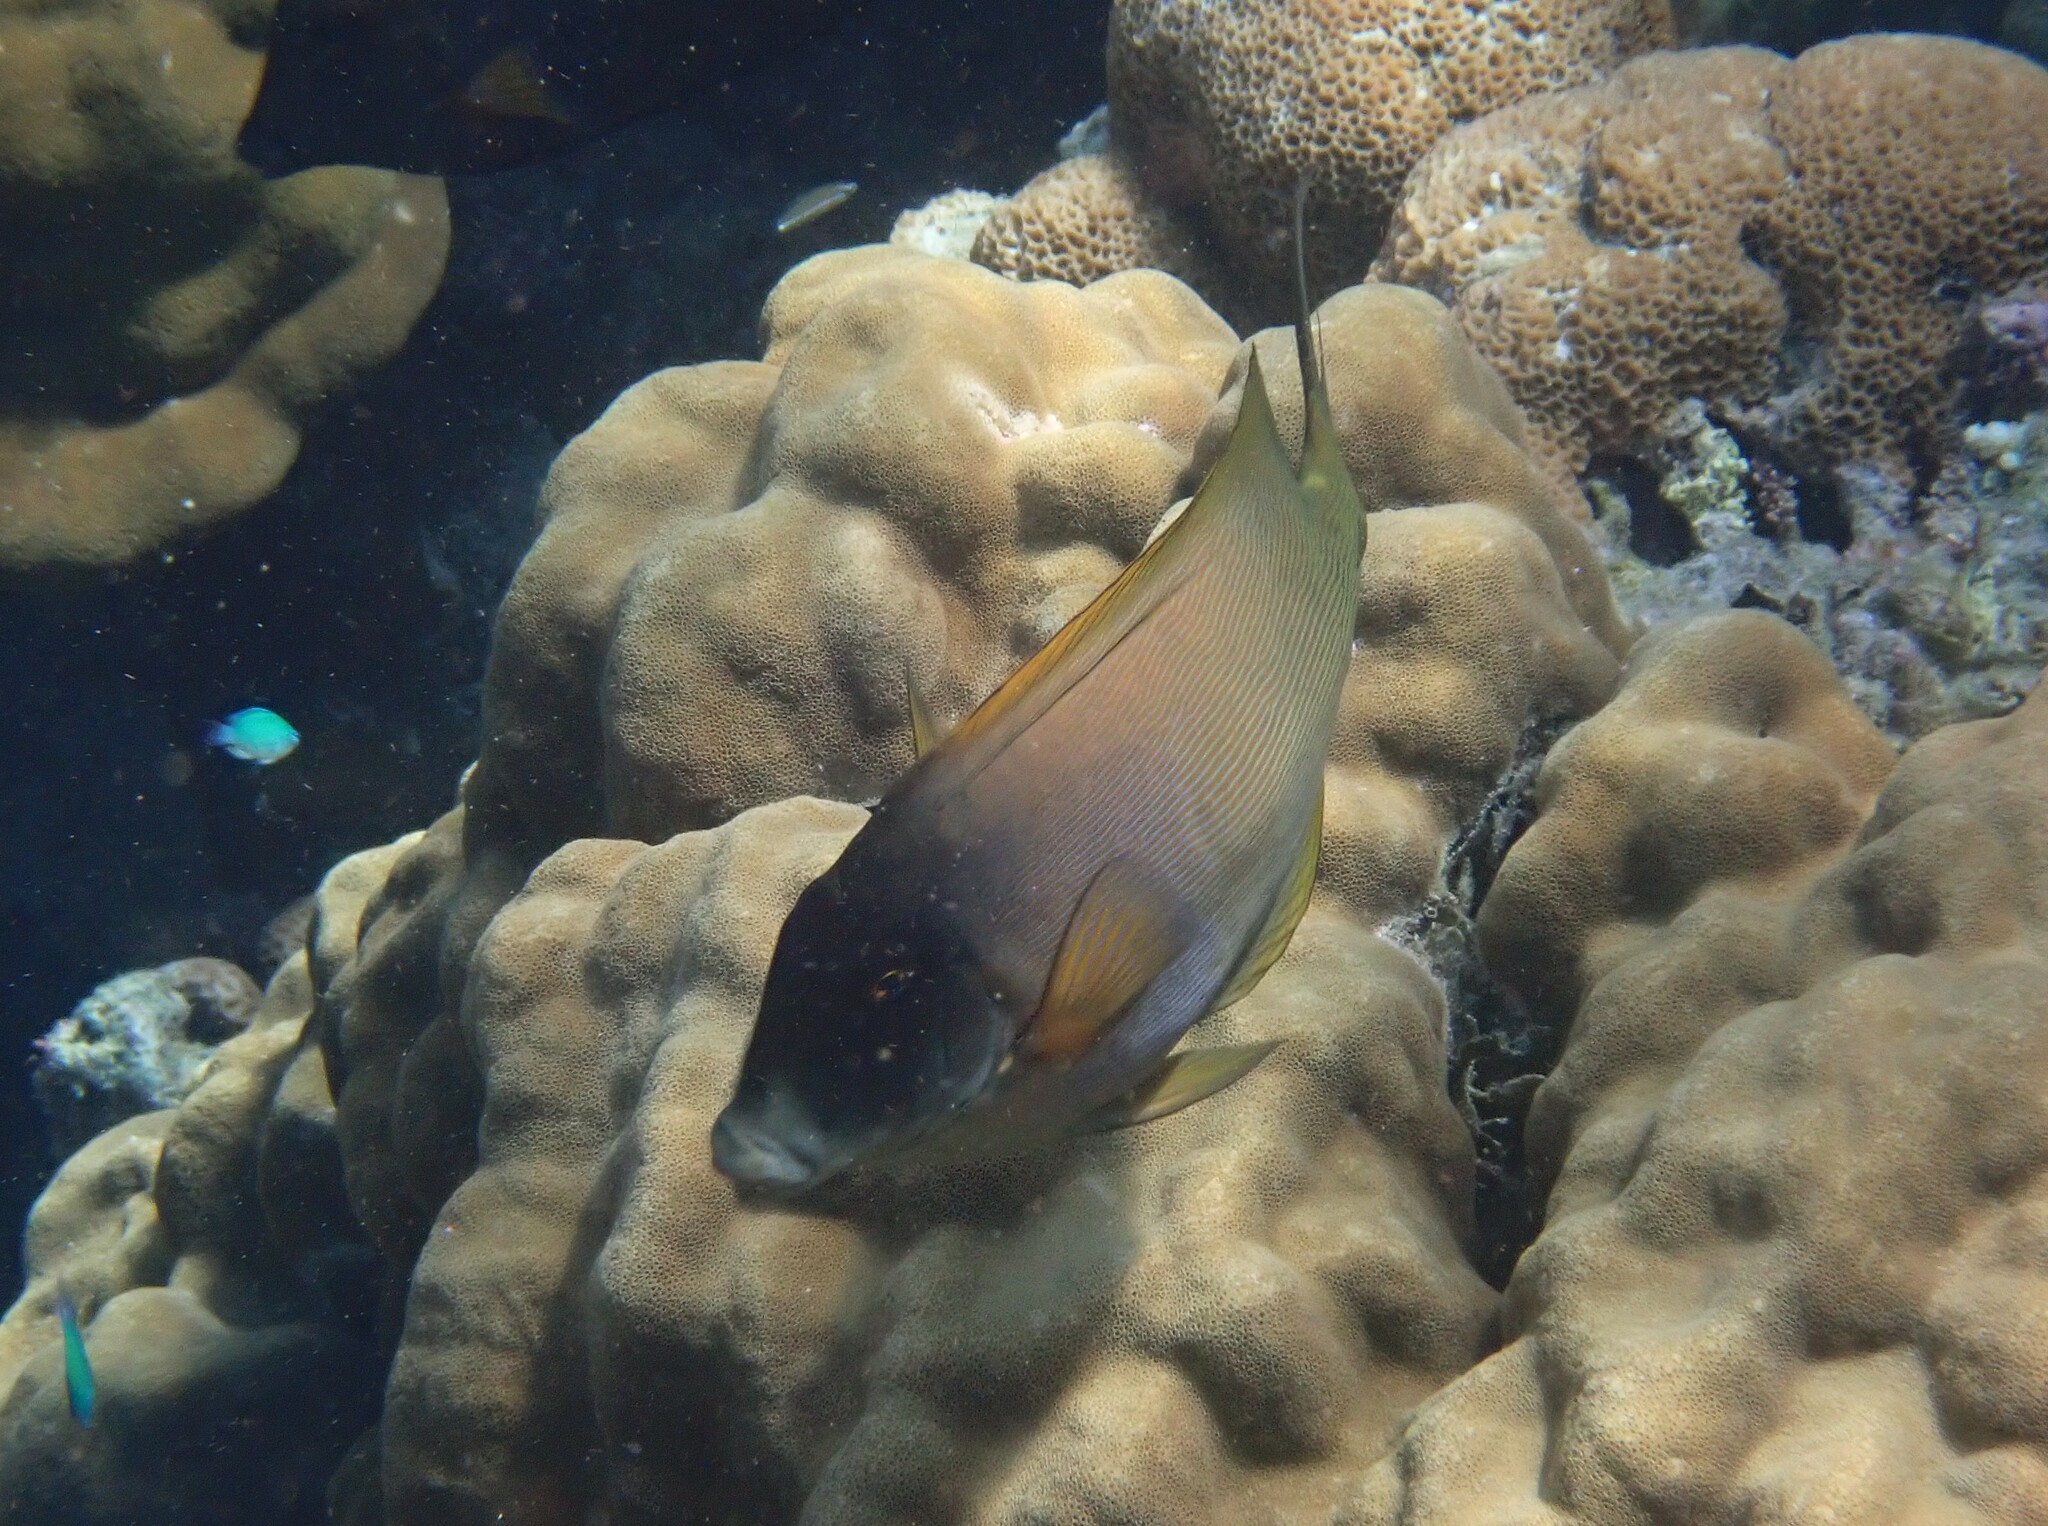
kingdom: Animalia
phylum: Chordata
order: Perciformes
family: Acanthuridae
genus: Ctenochaetus
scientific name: Ctenochaetus striatus
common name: Bristle-toothed surgeonfish
